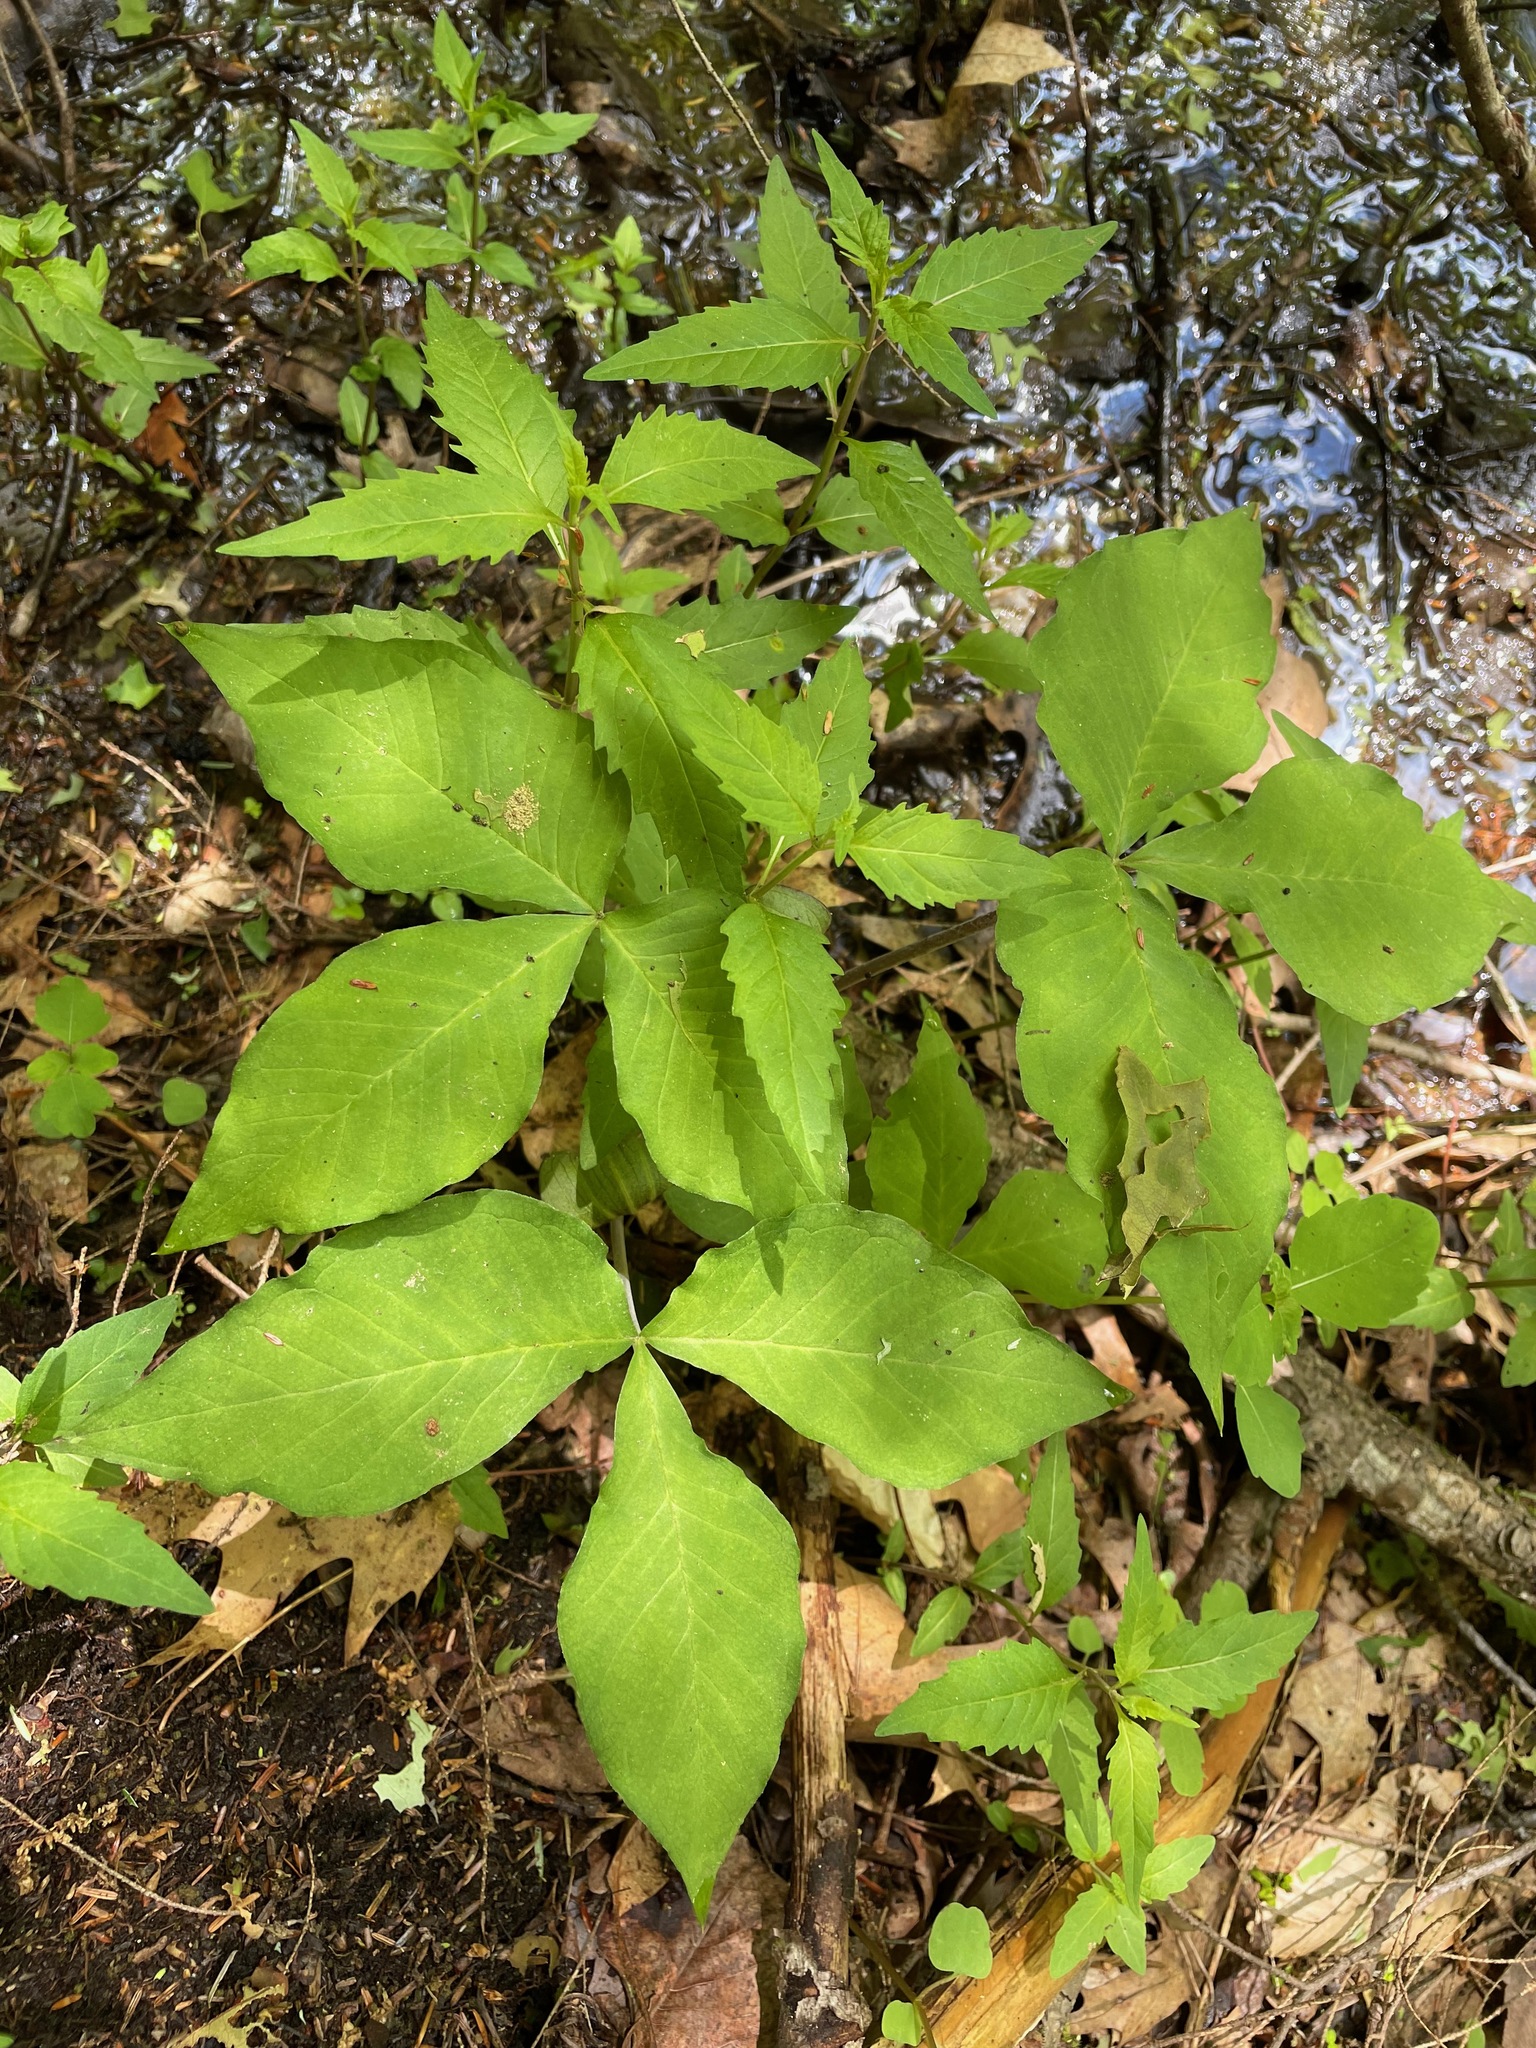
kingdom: Plantae
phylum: Tracheophyta
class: Liliopsida
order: Alismatales
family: Araceae
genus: Arisaema
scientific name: Arisaema triphyllum
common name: Jack-in-the-pulpit
